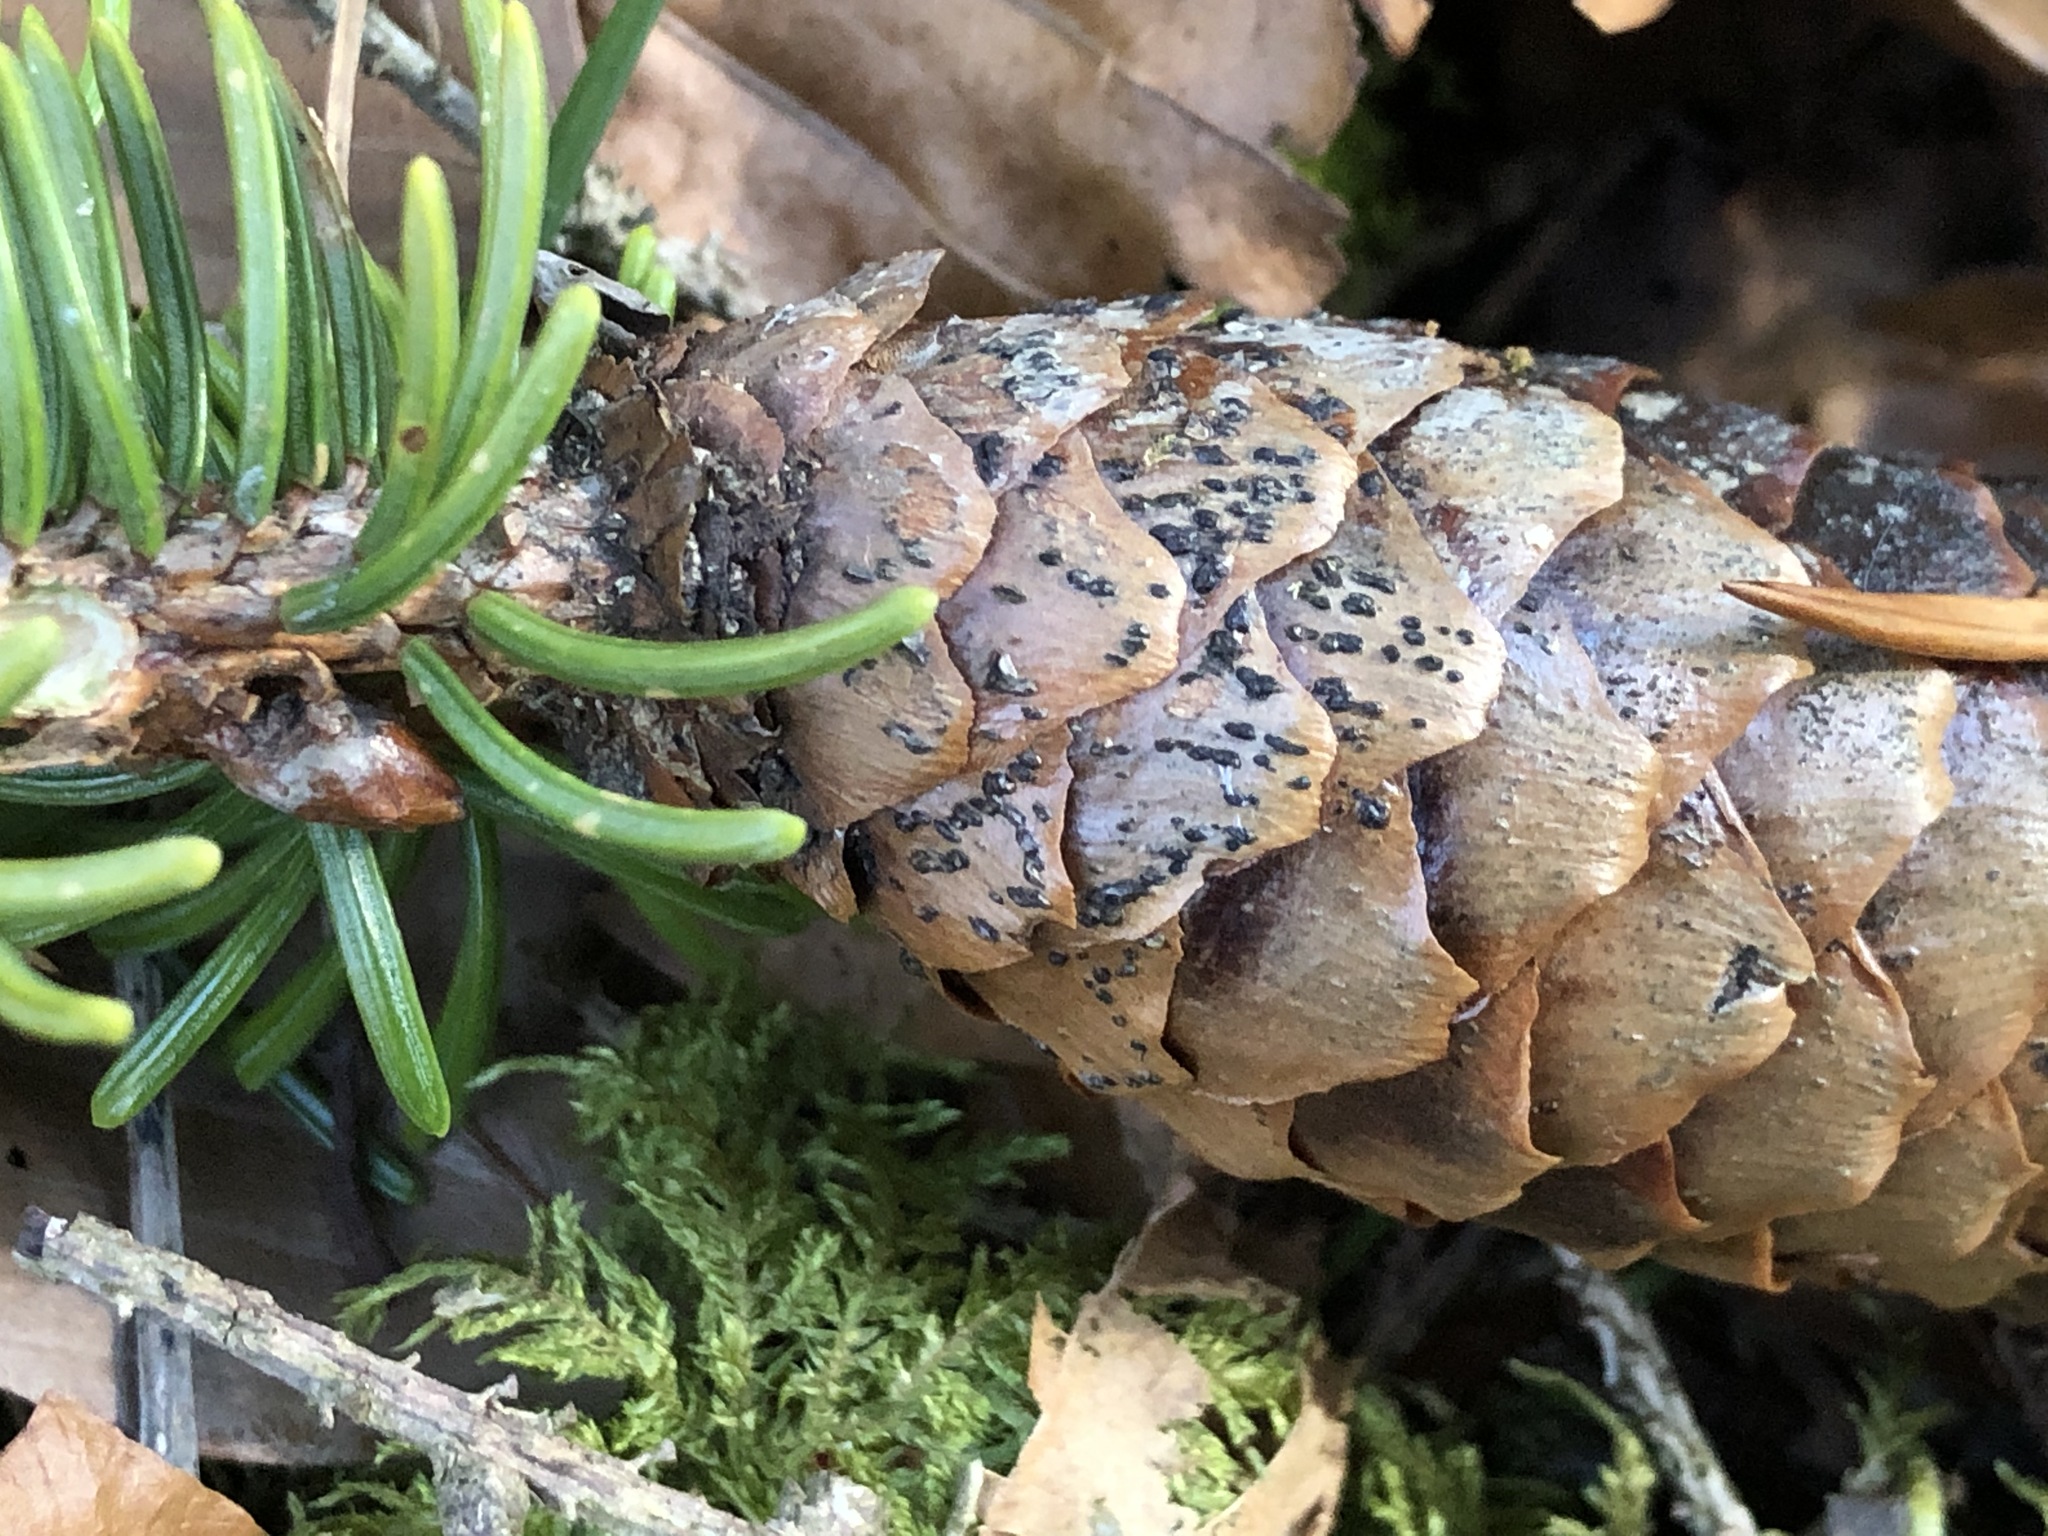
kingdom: Fungi
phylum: Ascomycota
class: Dothideomycetes
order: Pleosporales
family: Melanommataceae
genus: Phragmotrichum
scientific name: Phragmotrichum chailletii
